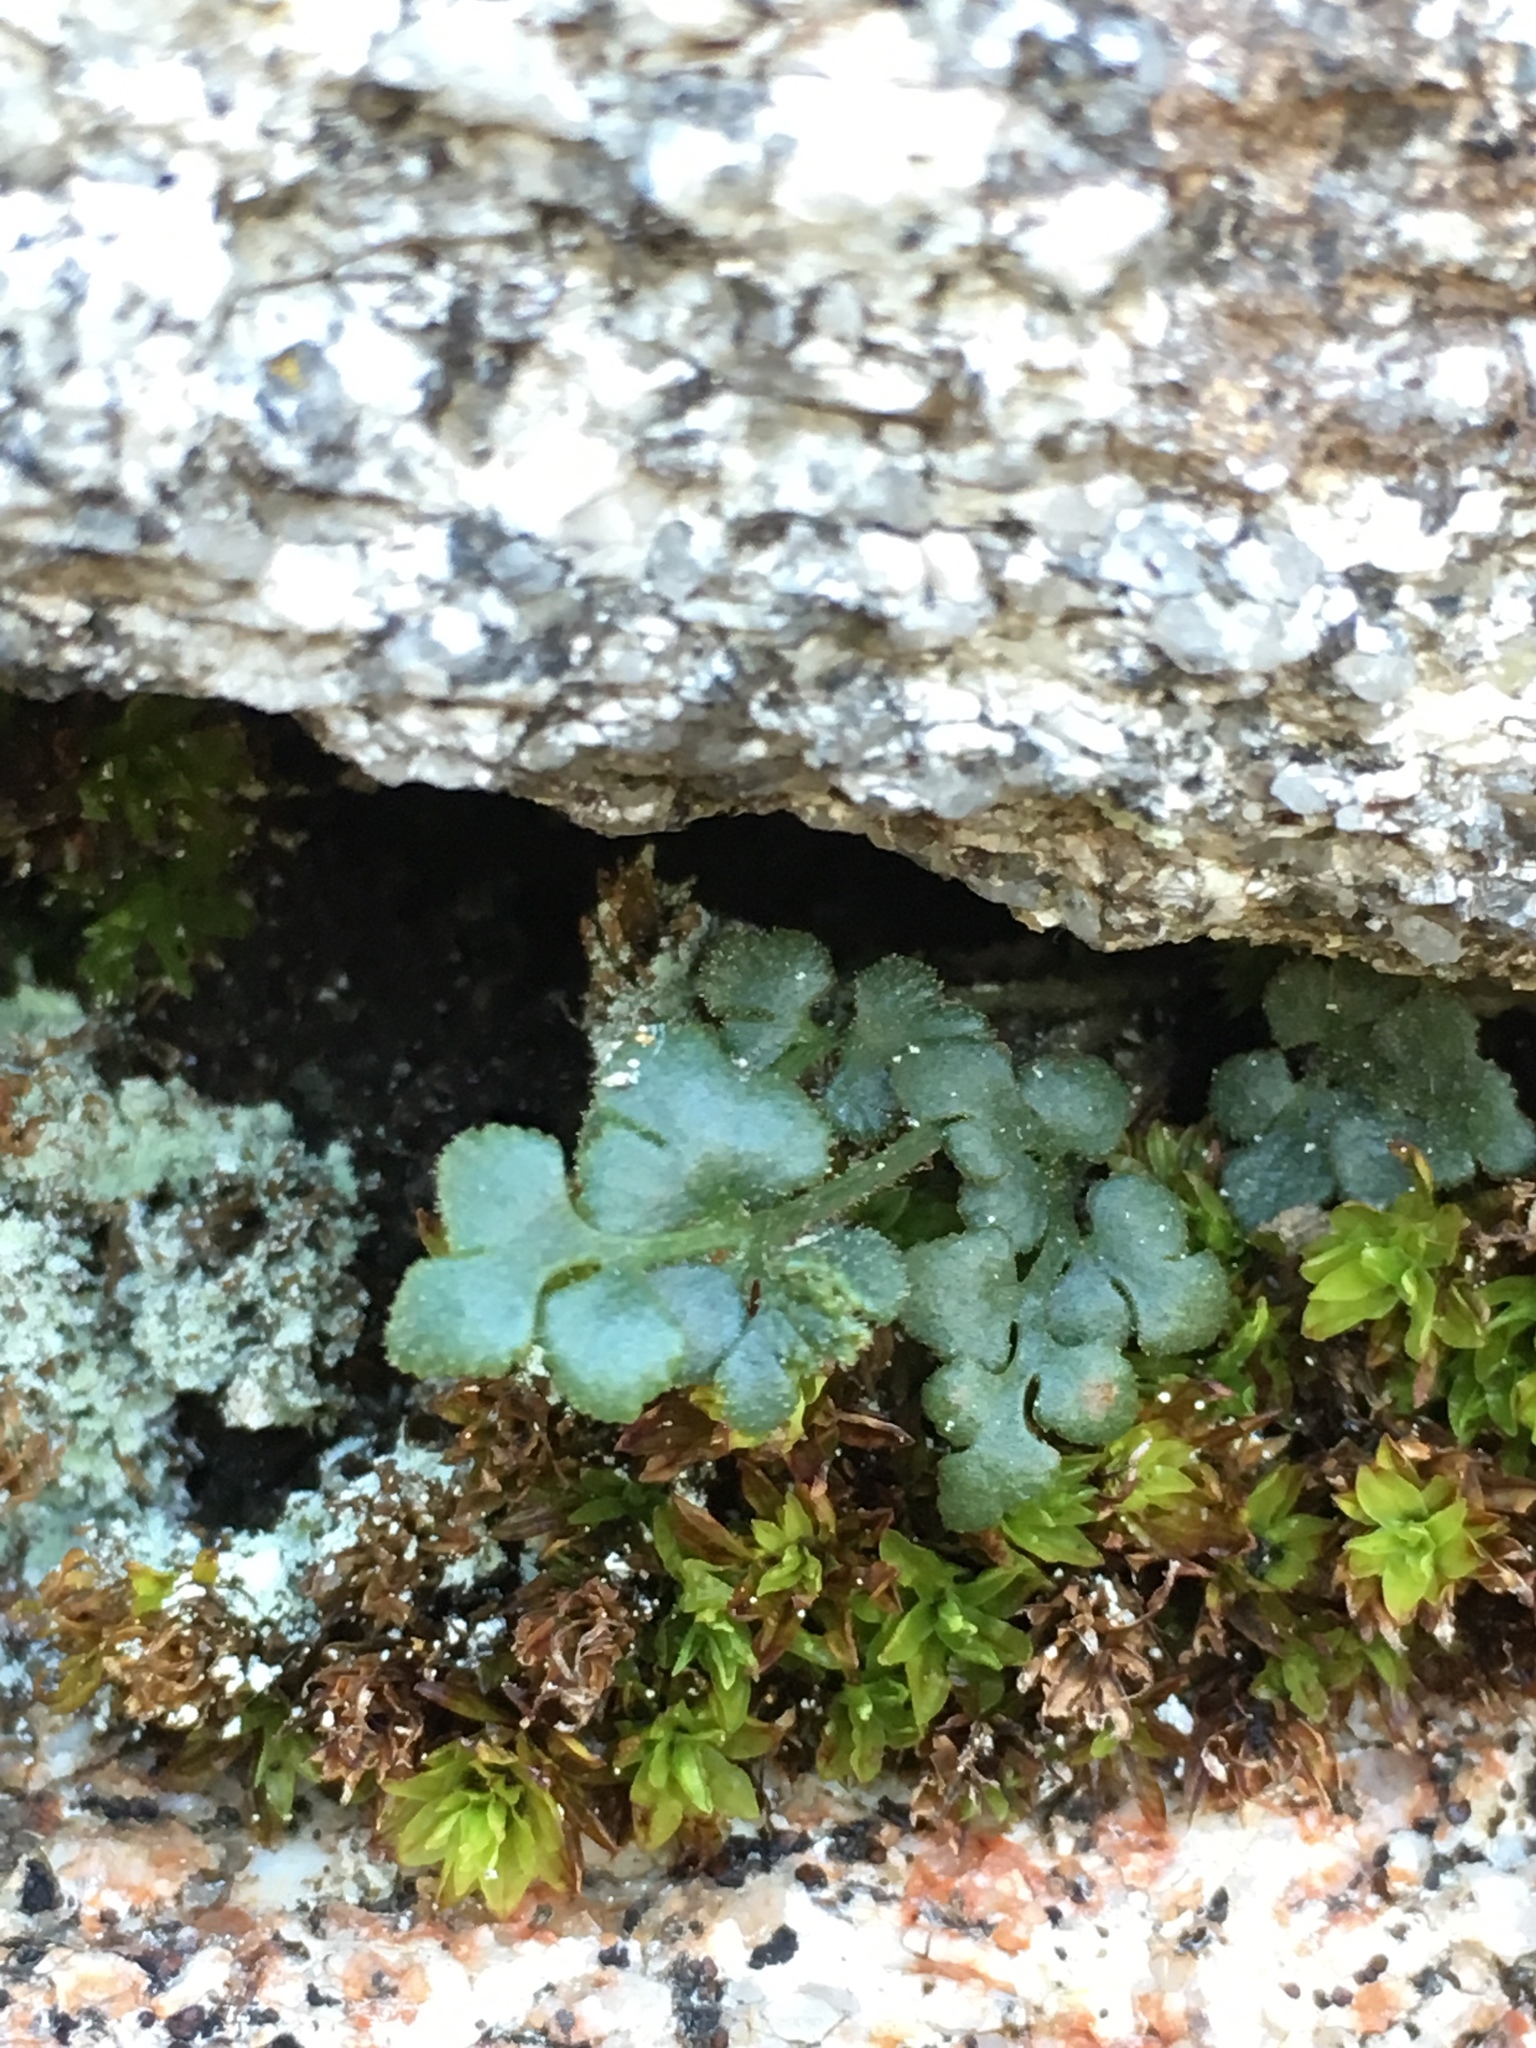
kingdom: Plantae
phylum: Tracheophyta
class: Polypodiopsida
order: Polypodiales
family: Aspleniaceae
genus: Asplenium
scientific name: Asplenium ruta-muraria
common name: Wall-rue
